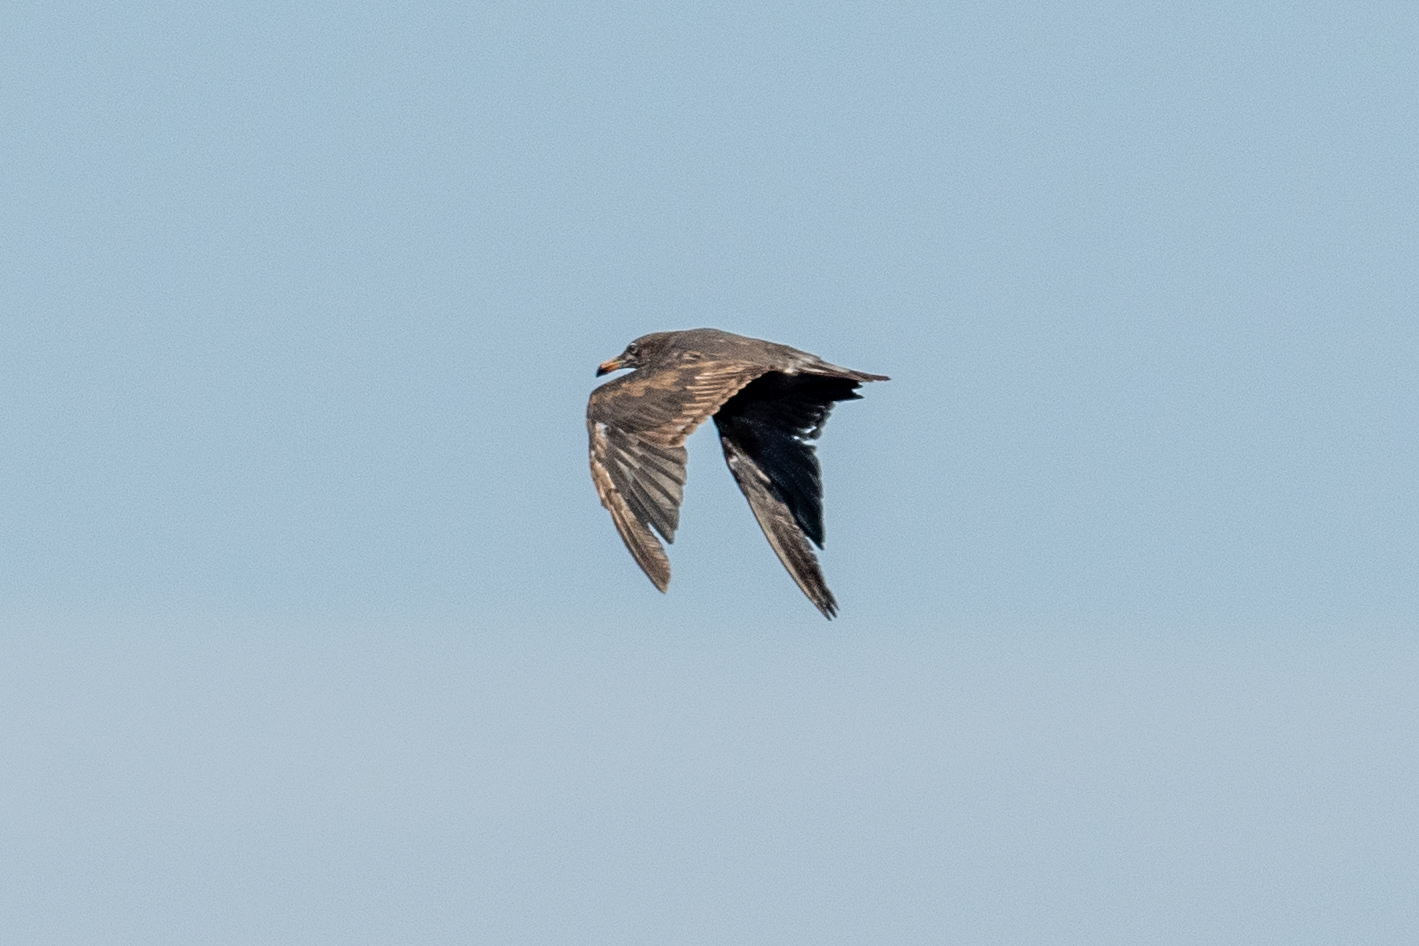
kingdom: Animalia
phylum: Chordata
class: Aves
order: Charadriiformes
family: Laridae
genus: Larus
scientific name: Larus heermanni
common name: Heermann's gull
